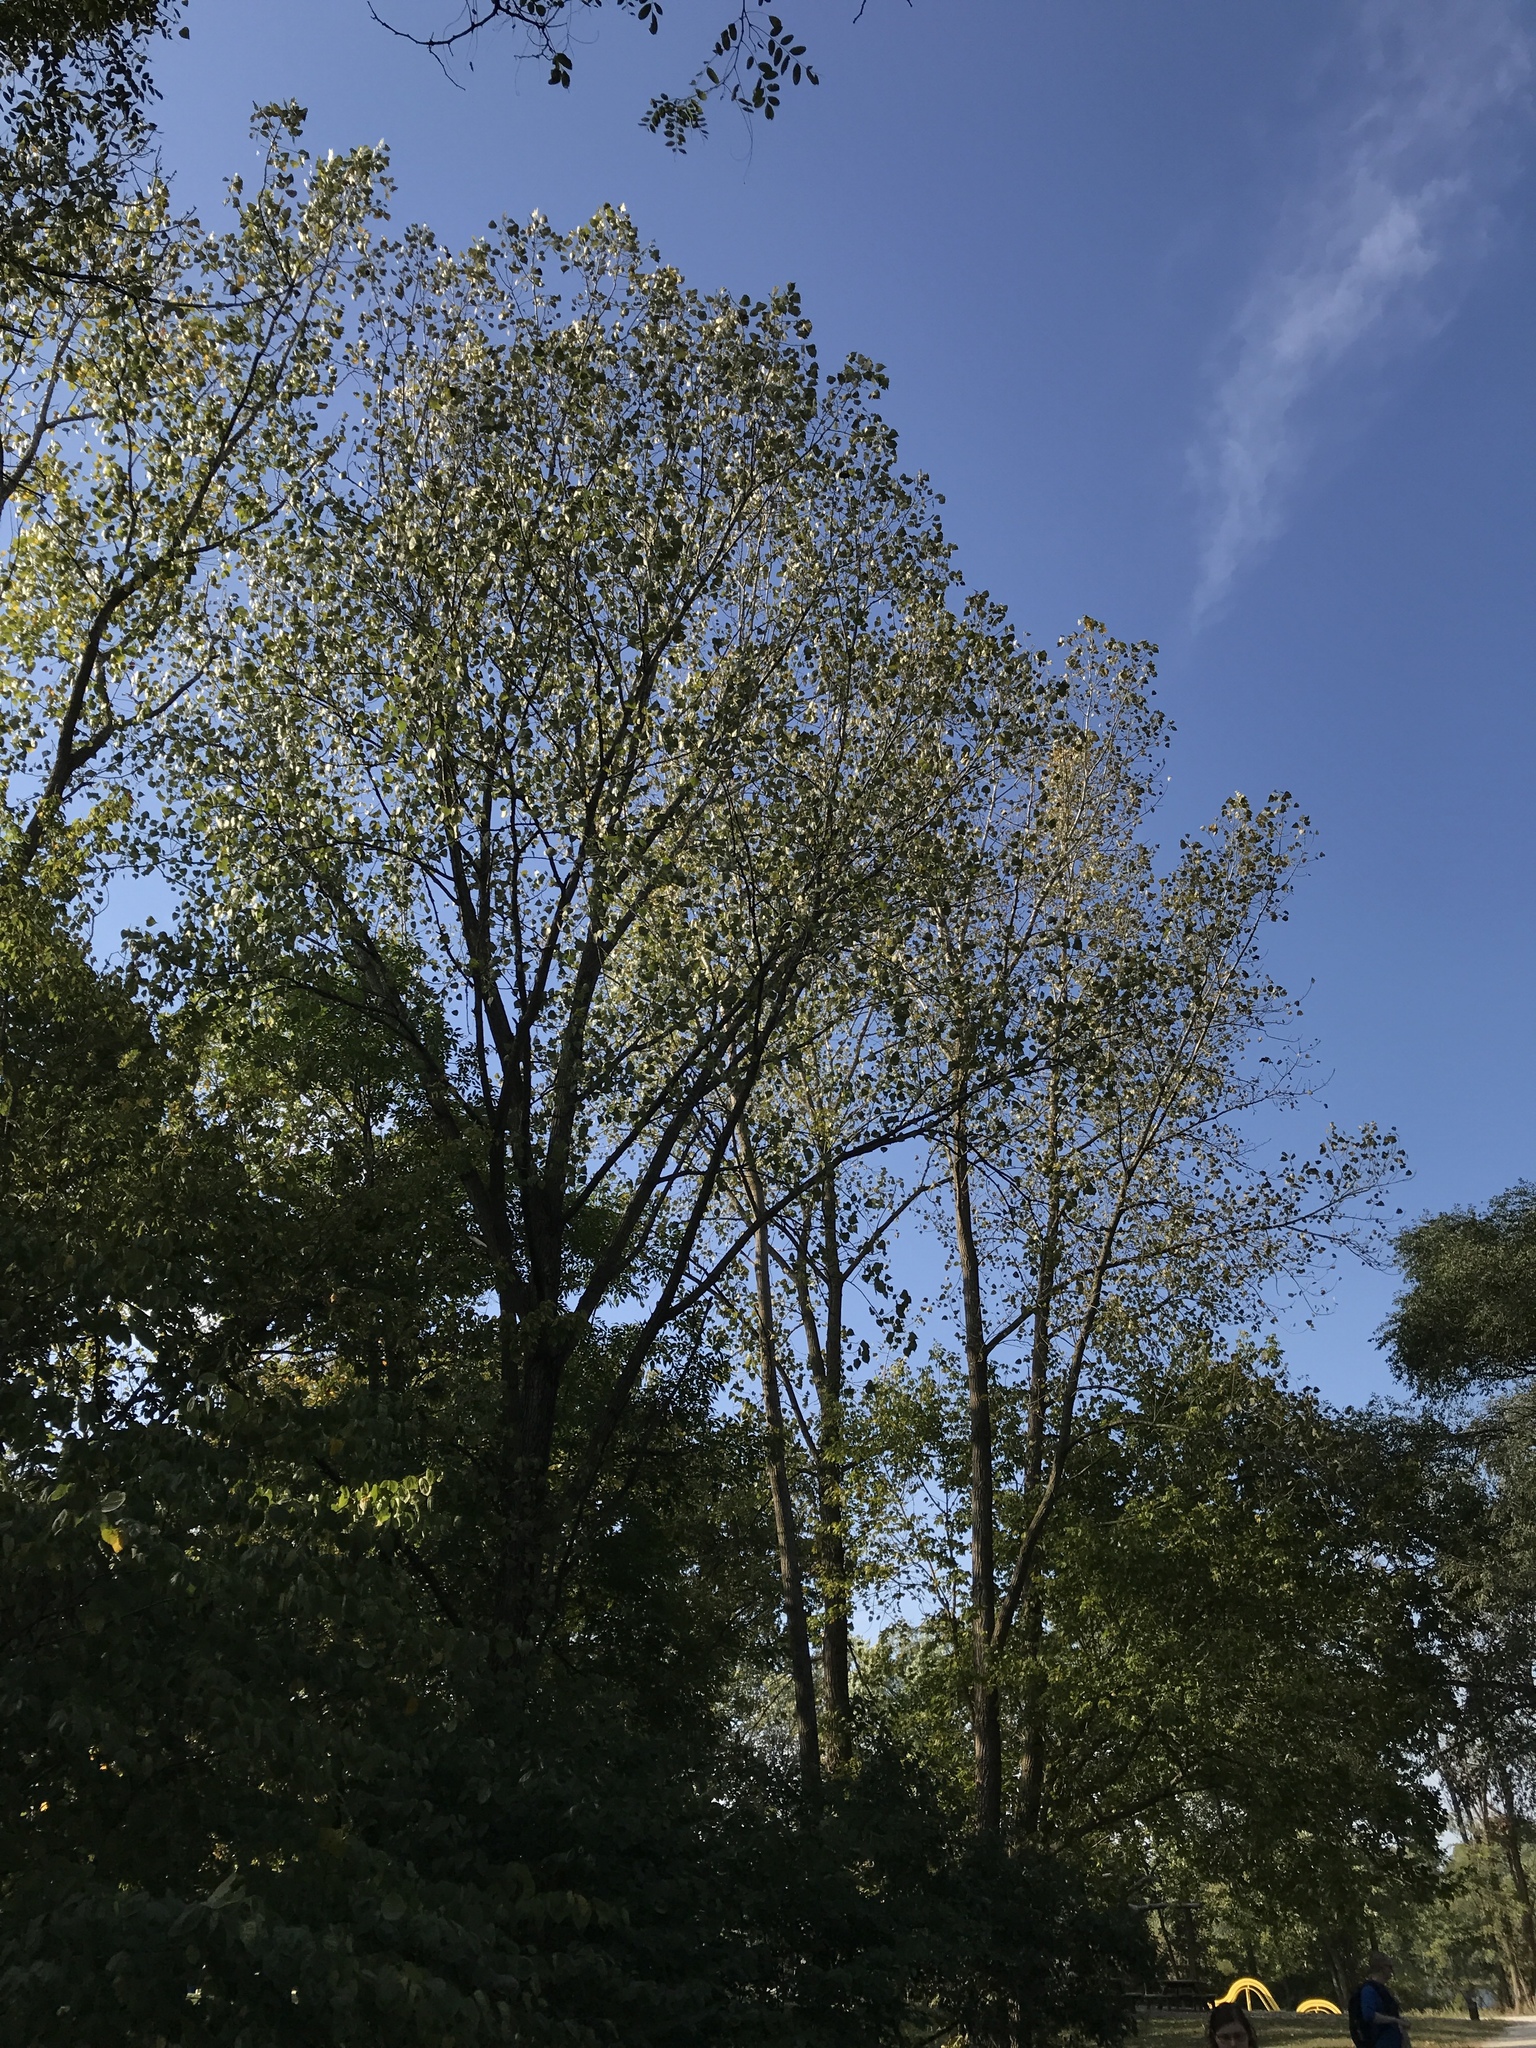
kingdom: Plantae
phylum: Tracheophyta
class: Magnoliopsida
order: Malpighiales
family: Salicaceae
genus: Populus
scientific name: Populus deltoides
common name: Eastern cottonwood
